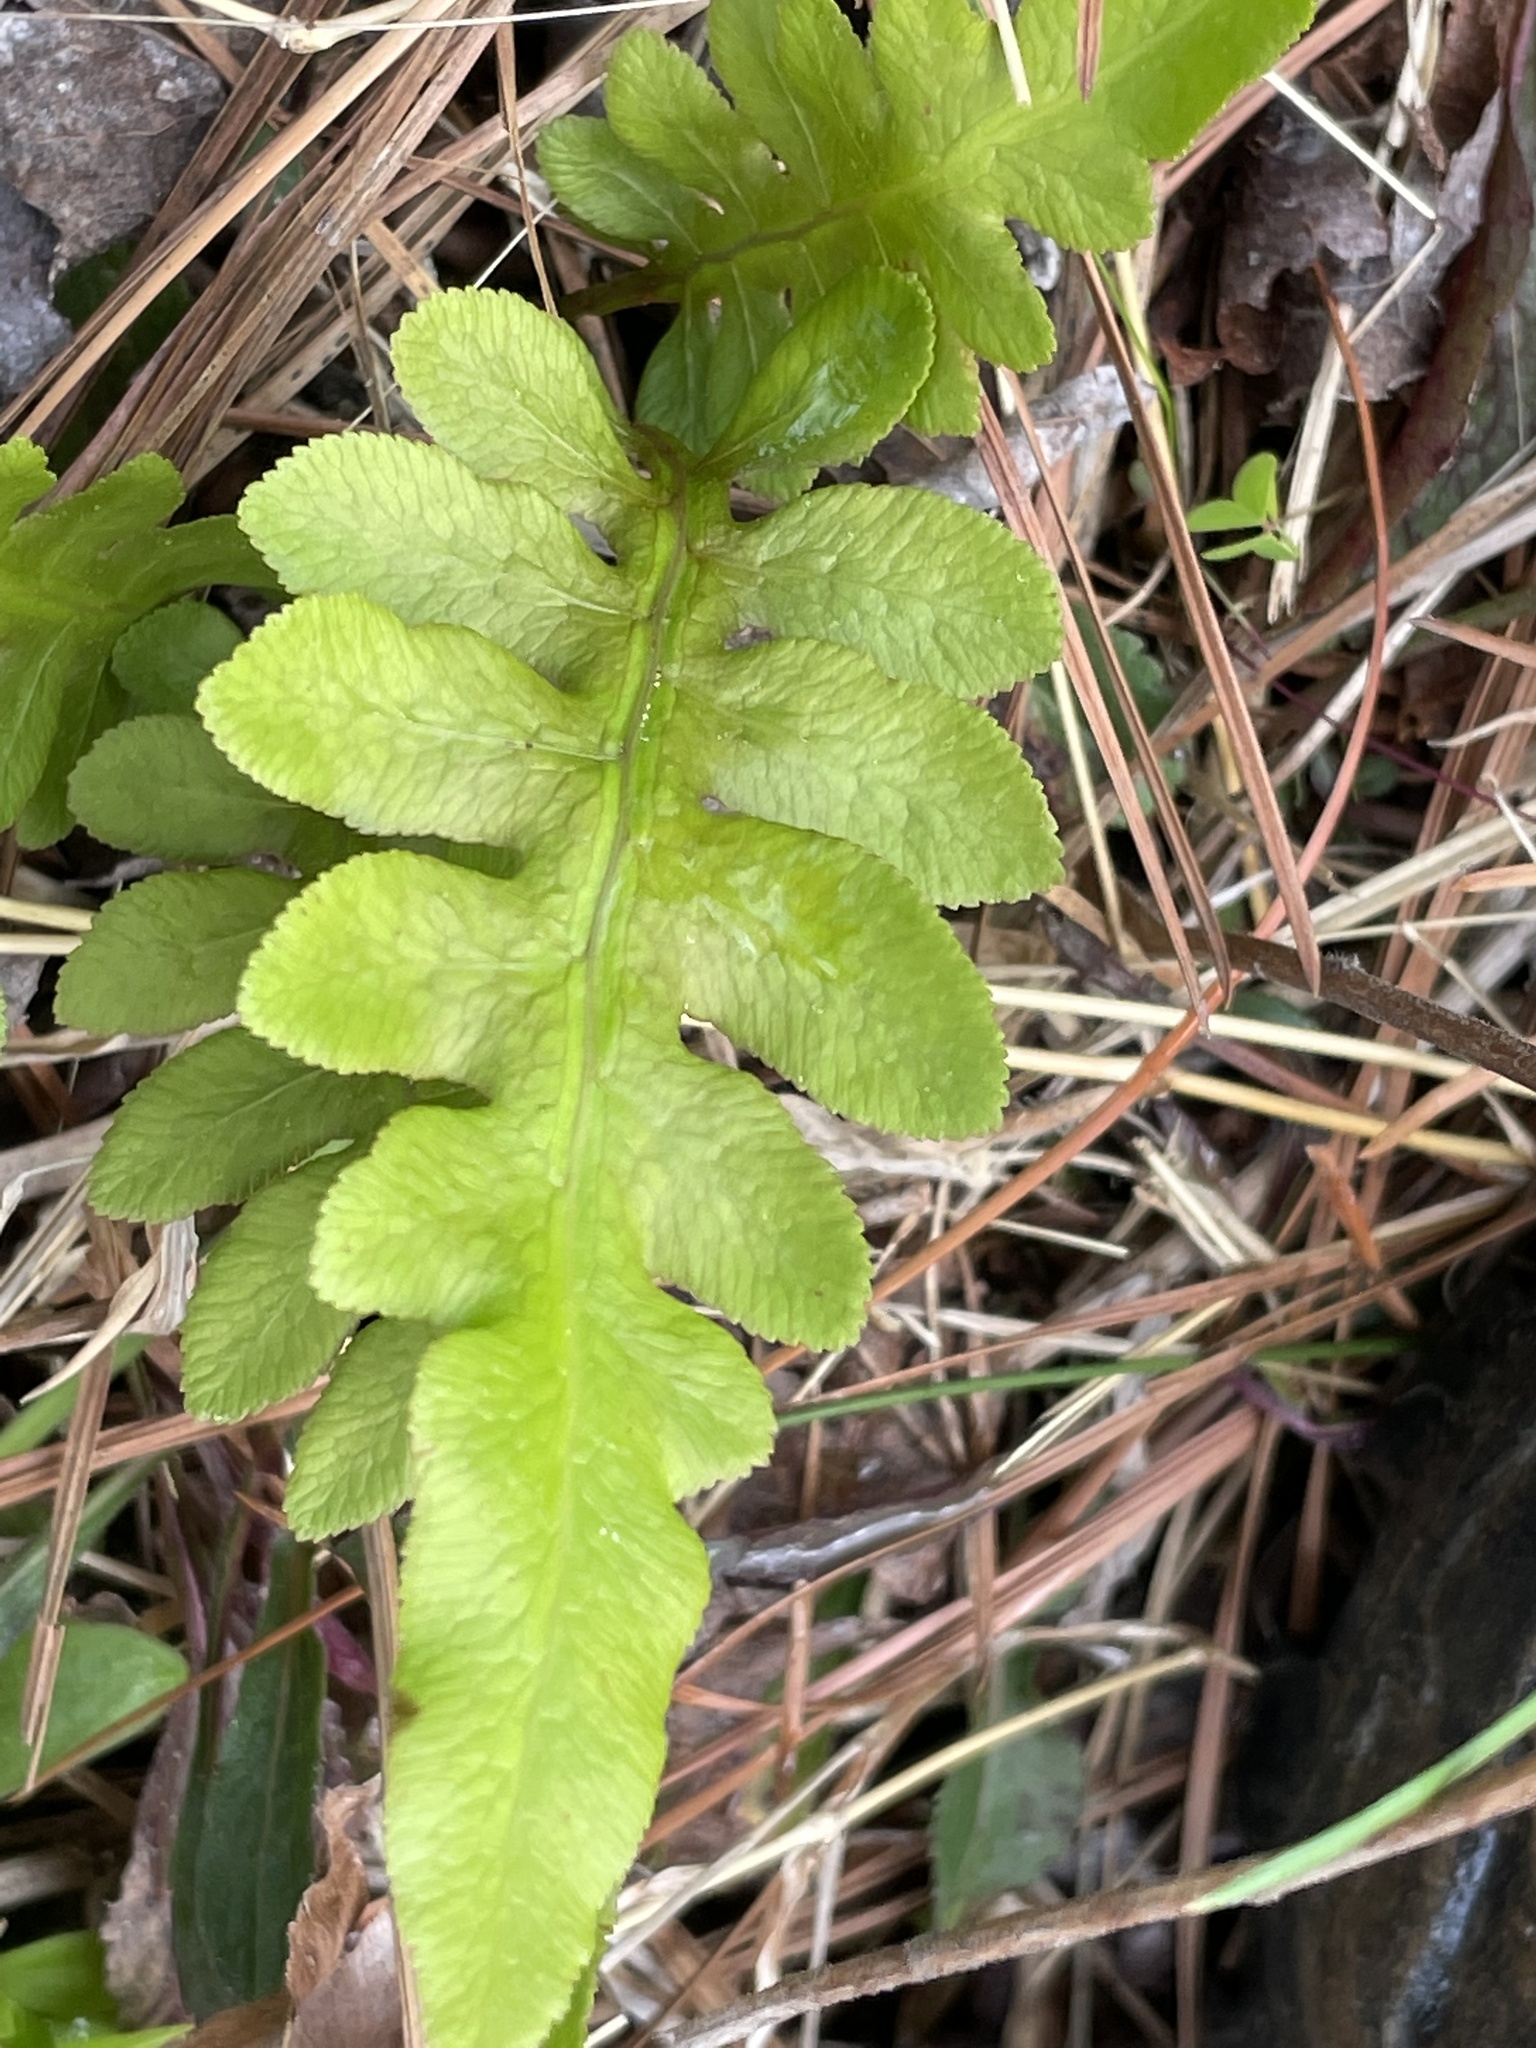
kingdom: Plantae
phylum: Tracheophyta
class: Polypodiopsida
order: Polypodiales
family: Blechnaceae
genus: Lorinseria
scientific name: Lorinseria areolata
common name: Dwarf chain fern
